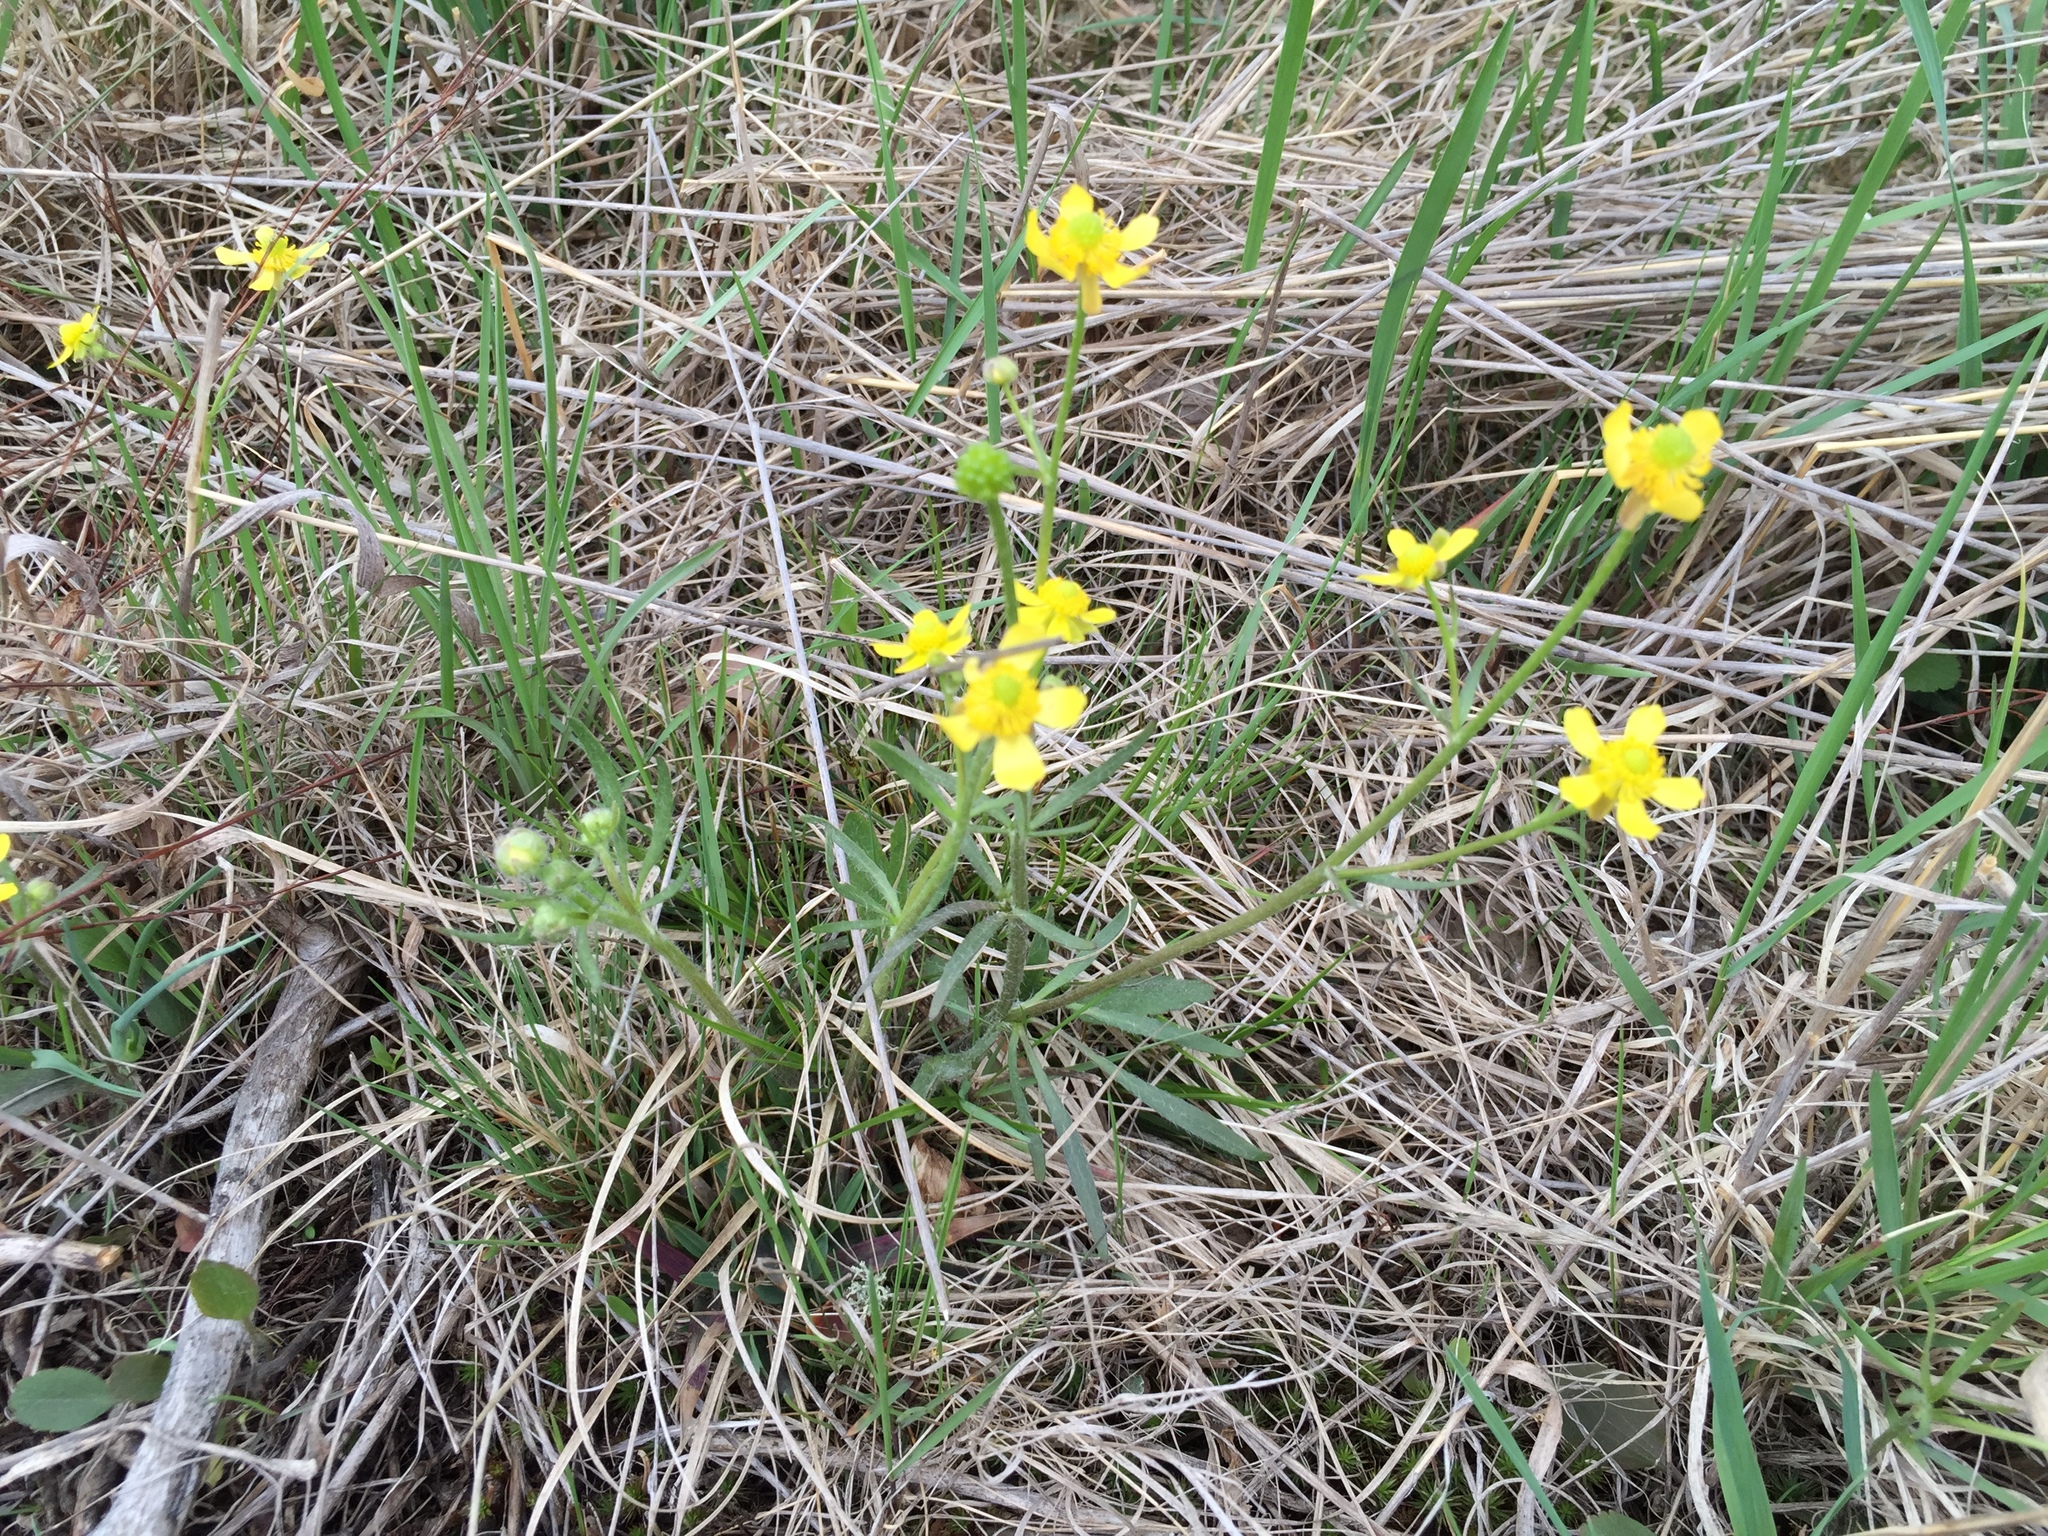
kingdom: Plantae
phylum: Tracheophyta
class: Magnoliopsida
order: Ranunculales
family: Ranunculaceae
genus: Ranunculus
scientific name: Ranunculus rhomboideus
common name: Prairie buttercup
